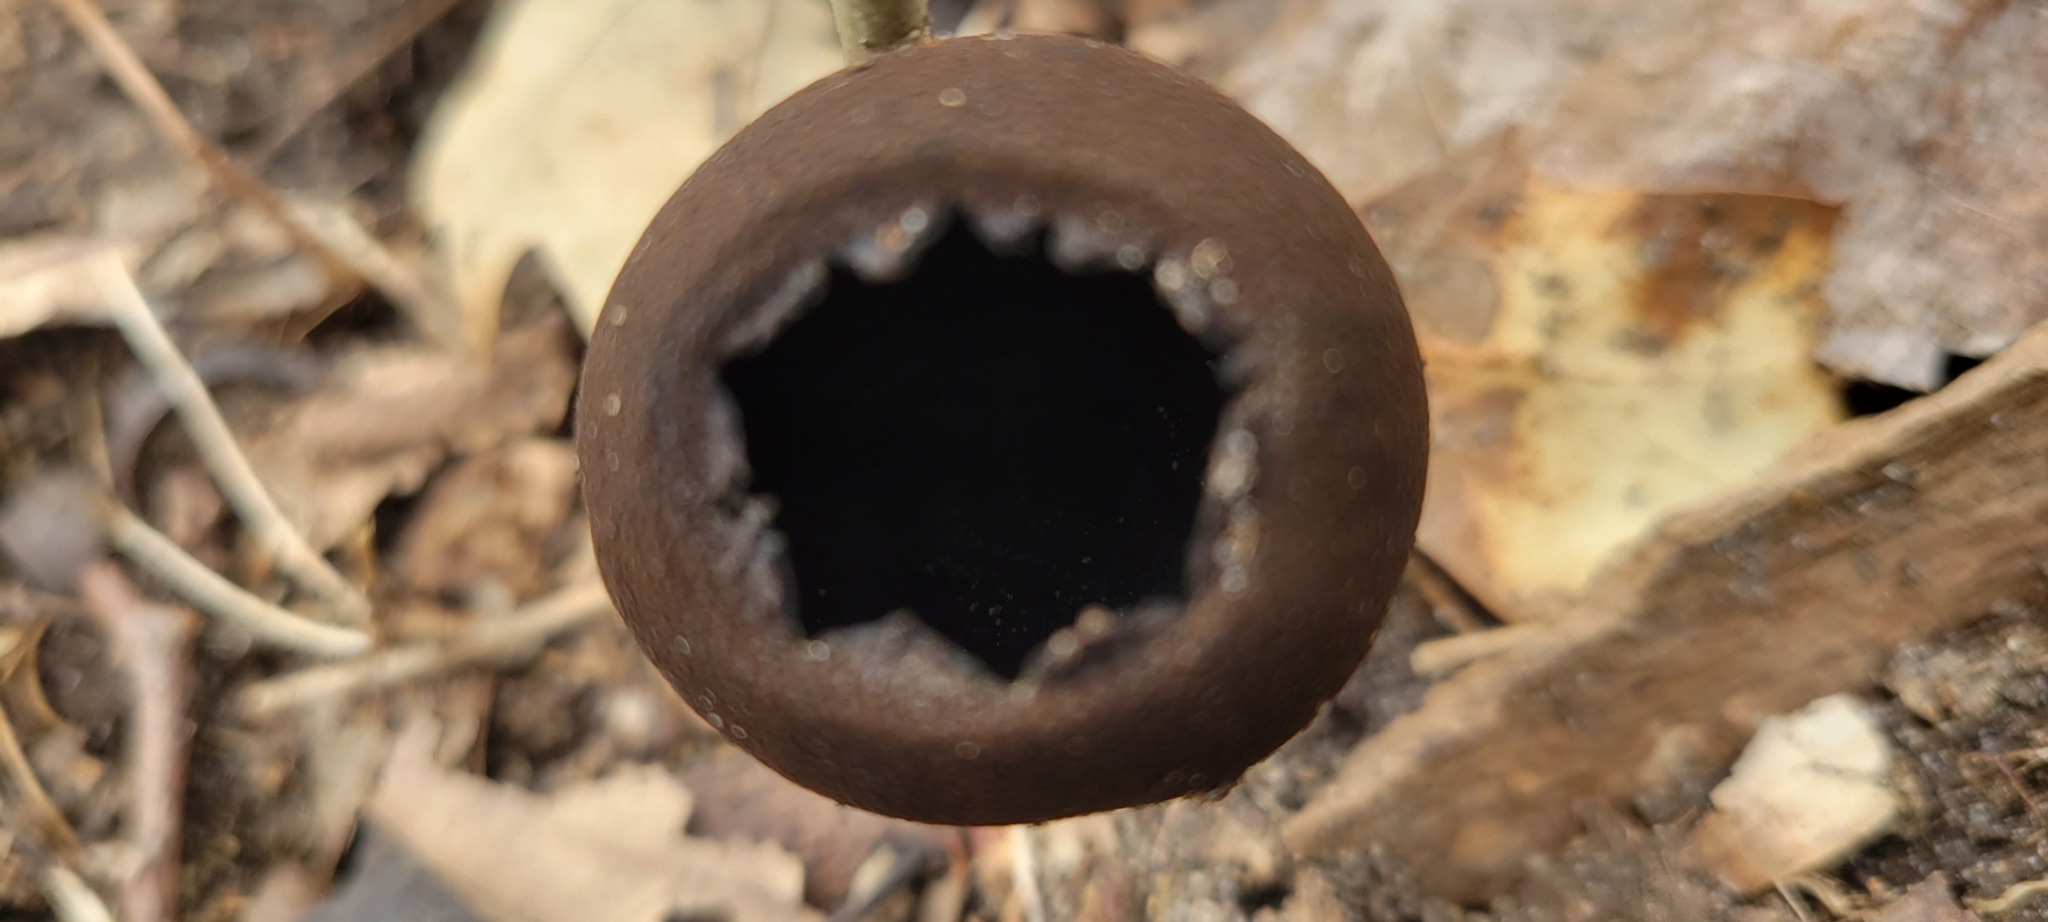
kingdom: Fungi
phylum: Ascomycota
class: Pezizomycetes
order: Pezizales
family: Sarcosomataceae
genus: Urnula
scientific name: Urnula craterium
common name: Devil's urn
